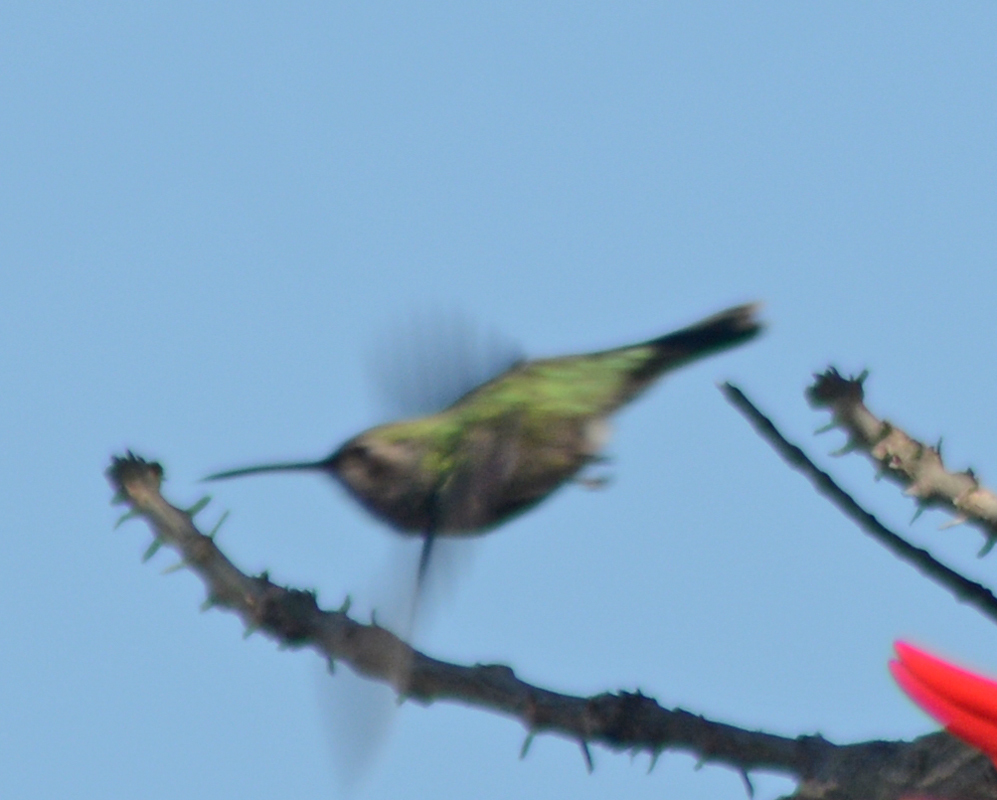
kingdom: Animalia
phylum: Chordata
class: Aves
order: Apodiformes
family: Trochilidae
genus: Cynanthus
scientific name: Cynanthus latirostris
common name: Broad-billed hummingbird
